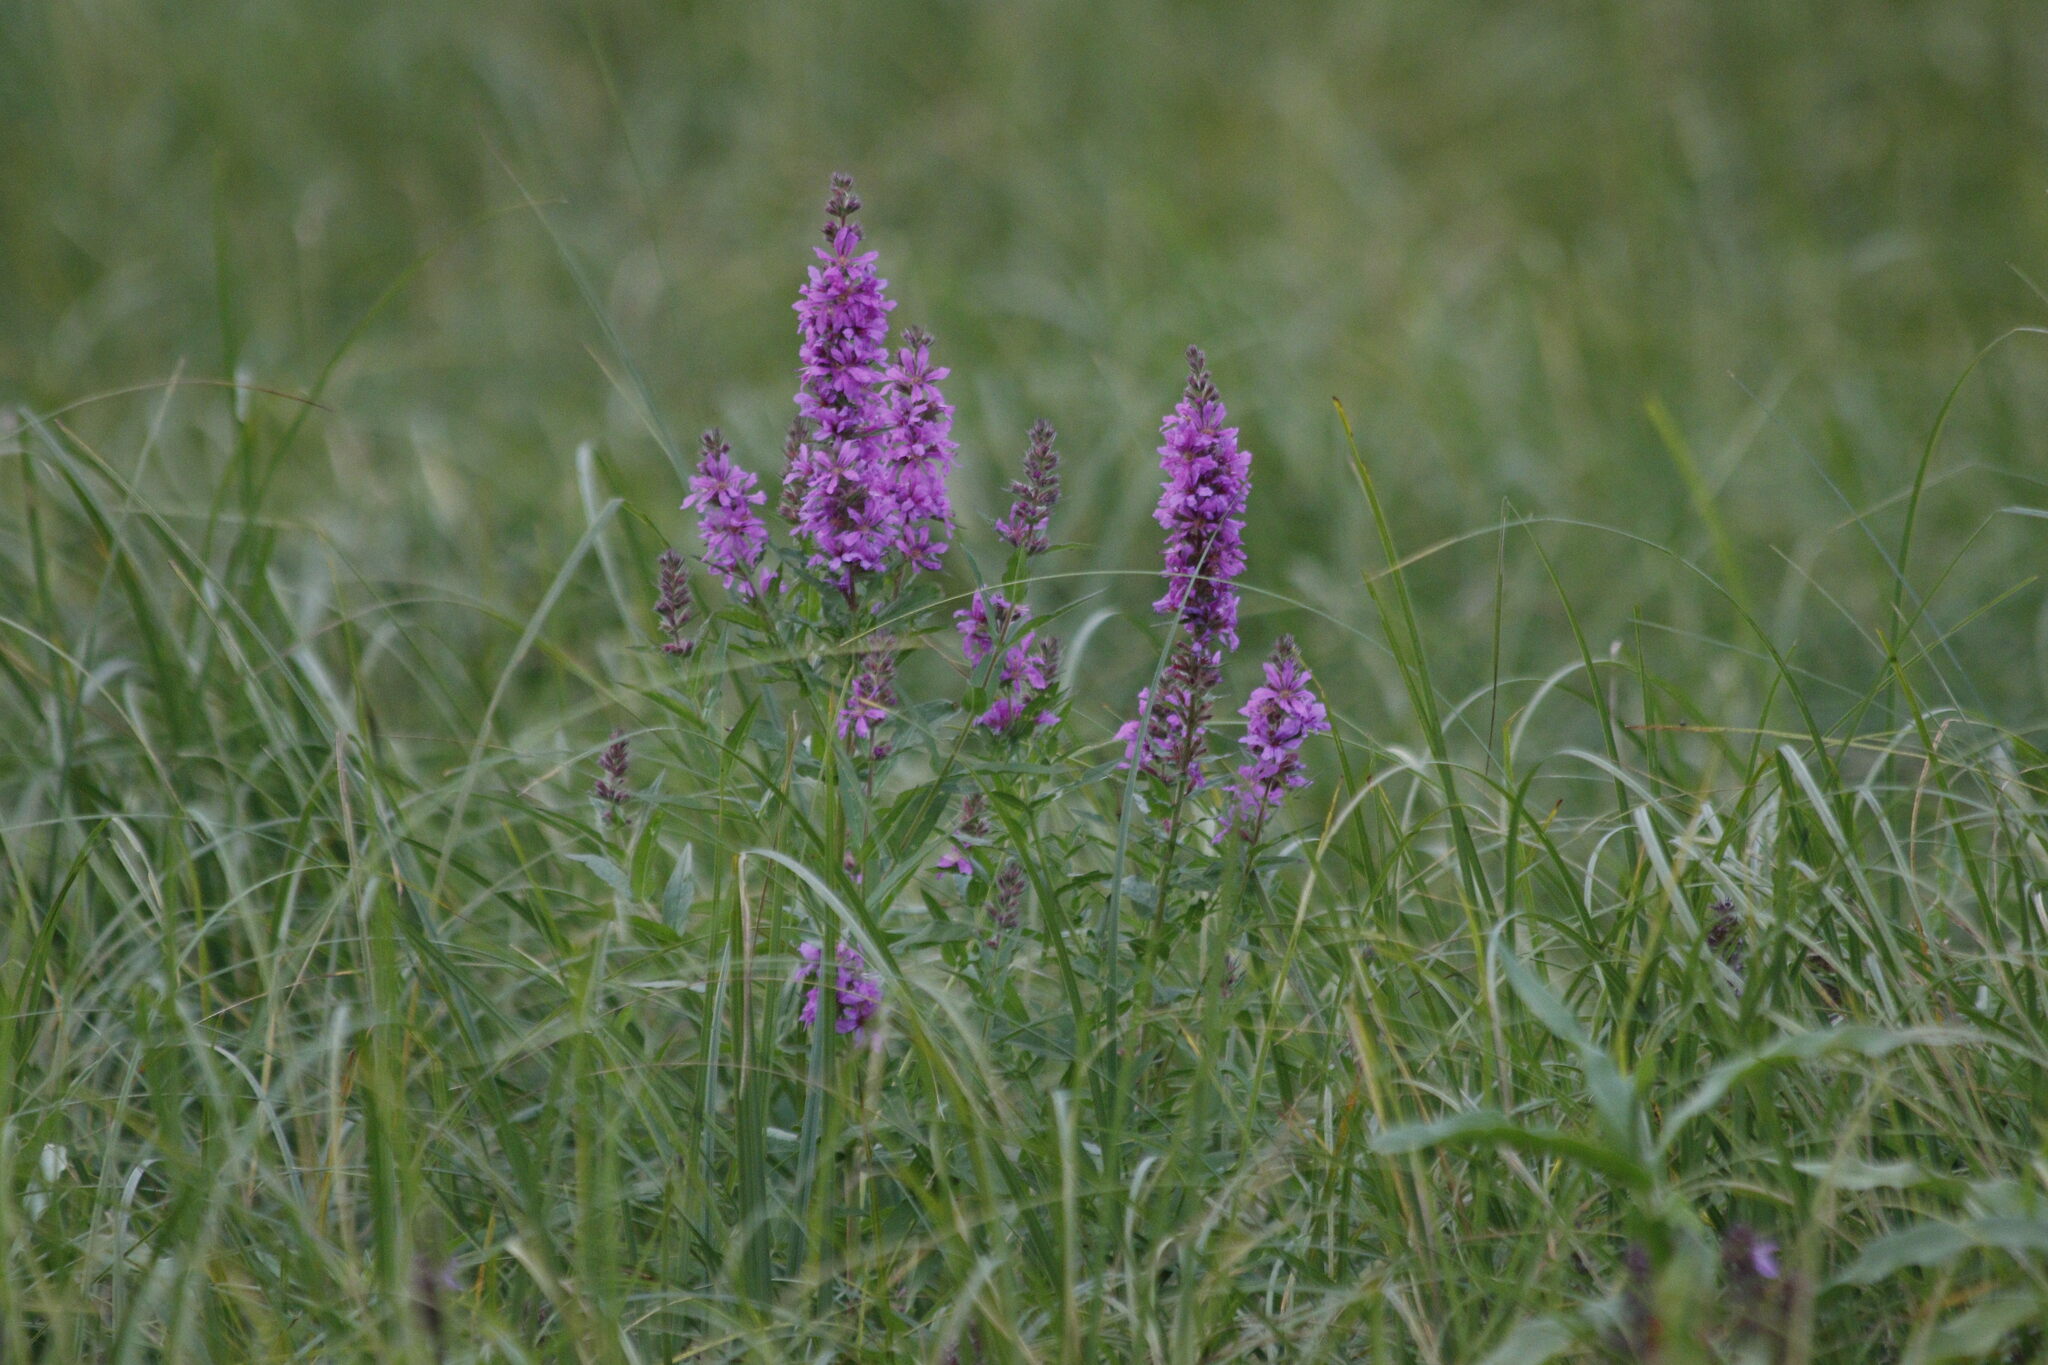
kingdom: Plantae
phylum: Tracheophyta
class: Magnoliopsida
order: Myrtales
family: Lythraceae
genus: Lythrum
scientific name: Lythrum salicaria
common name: Purple loosestrife
